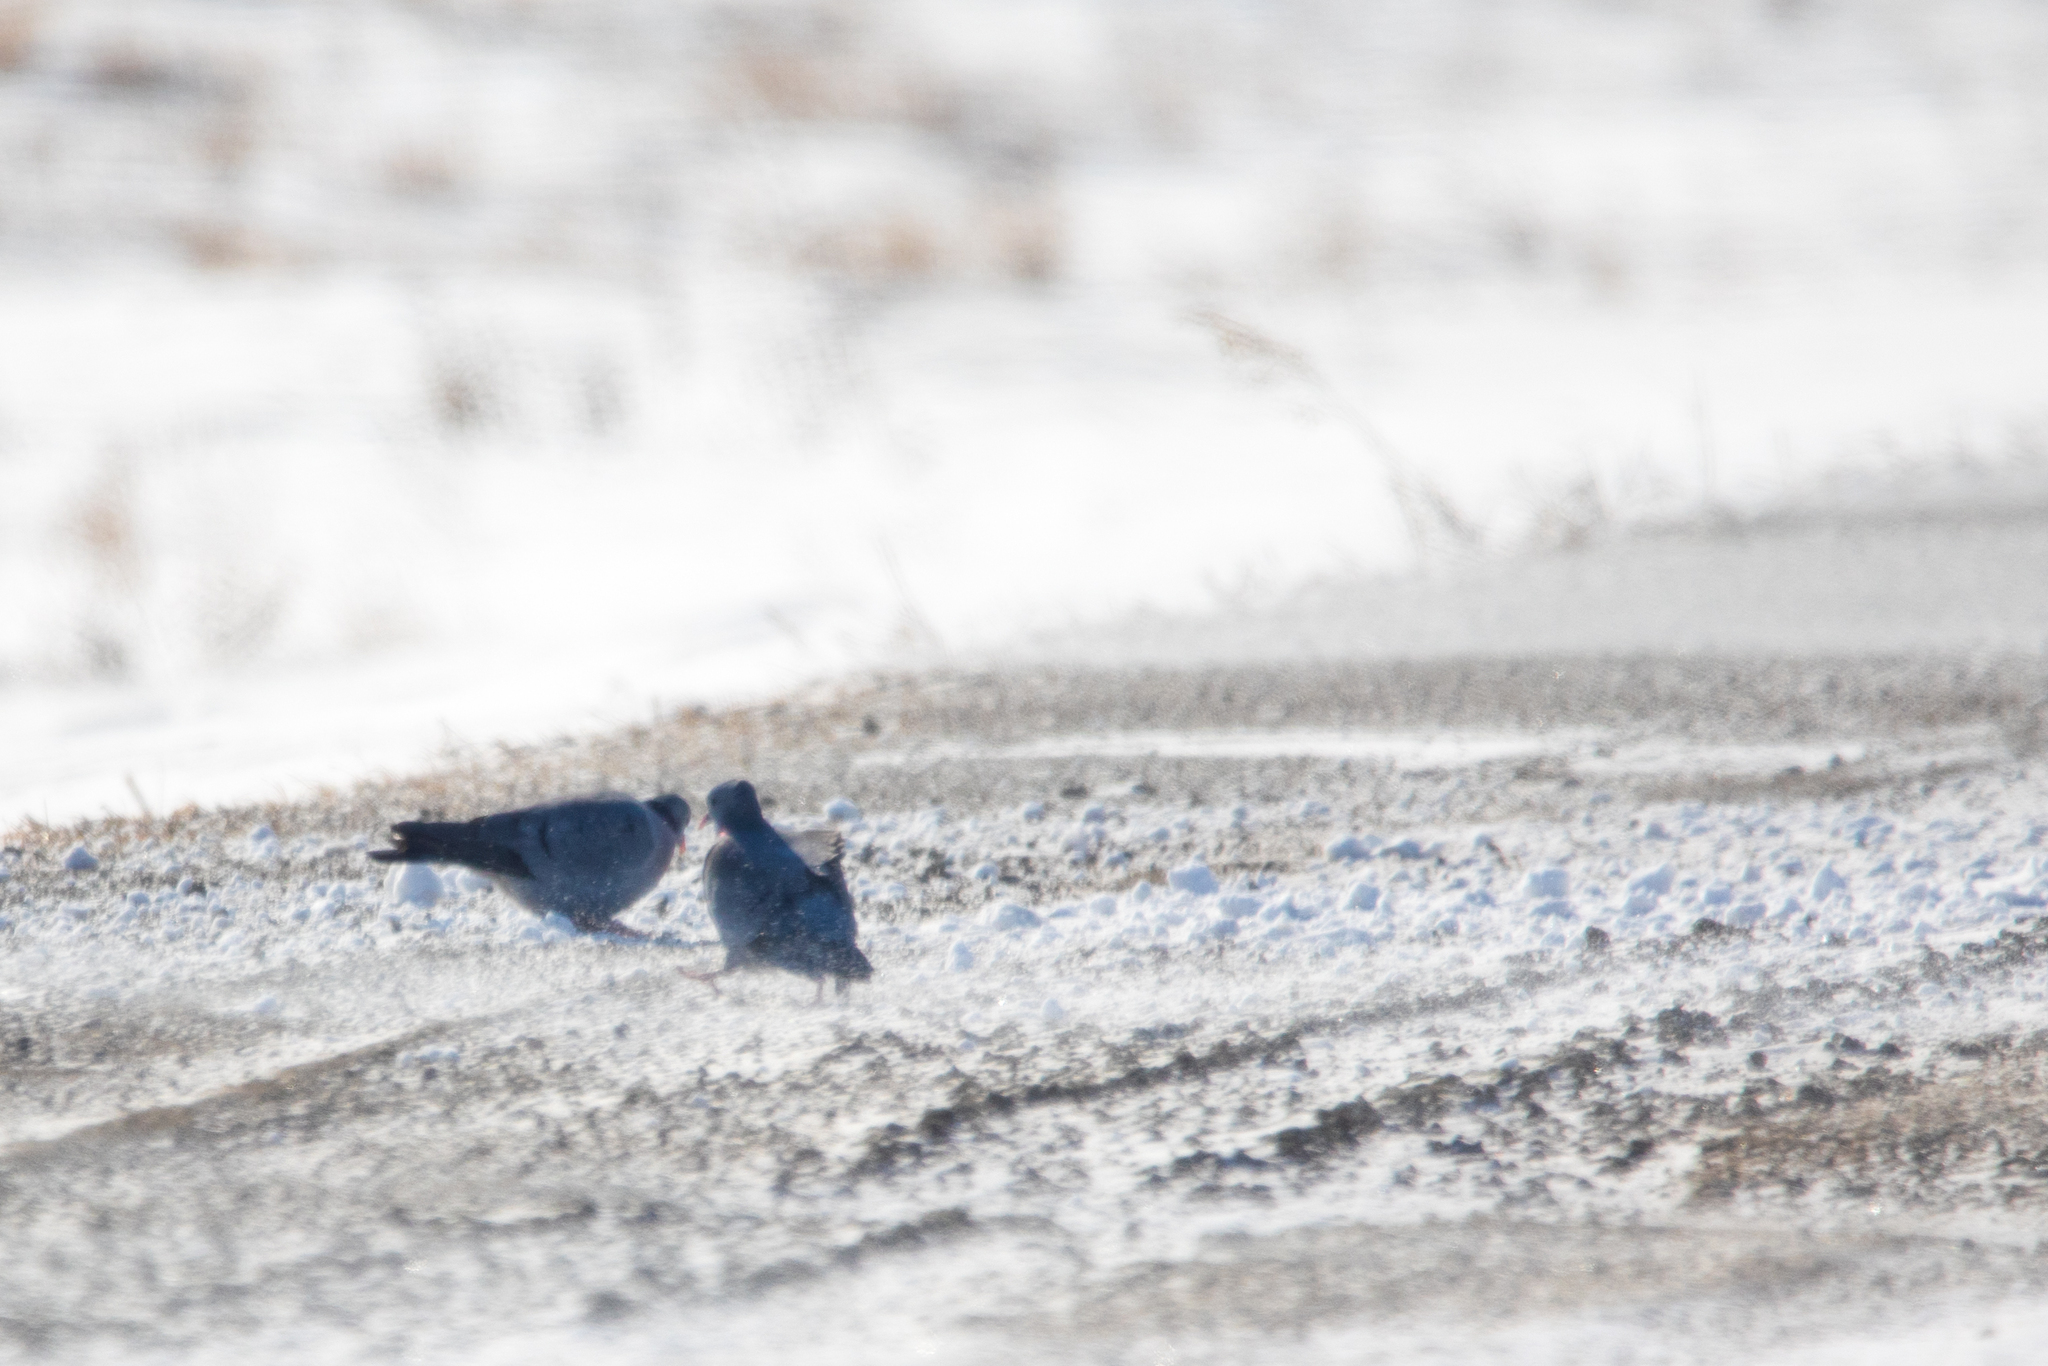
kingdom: Animalia
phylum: Chordata
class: Aves
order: Columbiformes
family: Columbidae
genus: Columba
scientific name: Columba oenas
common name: Stock dove
